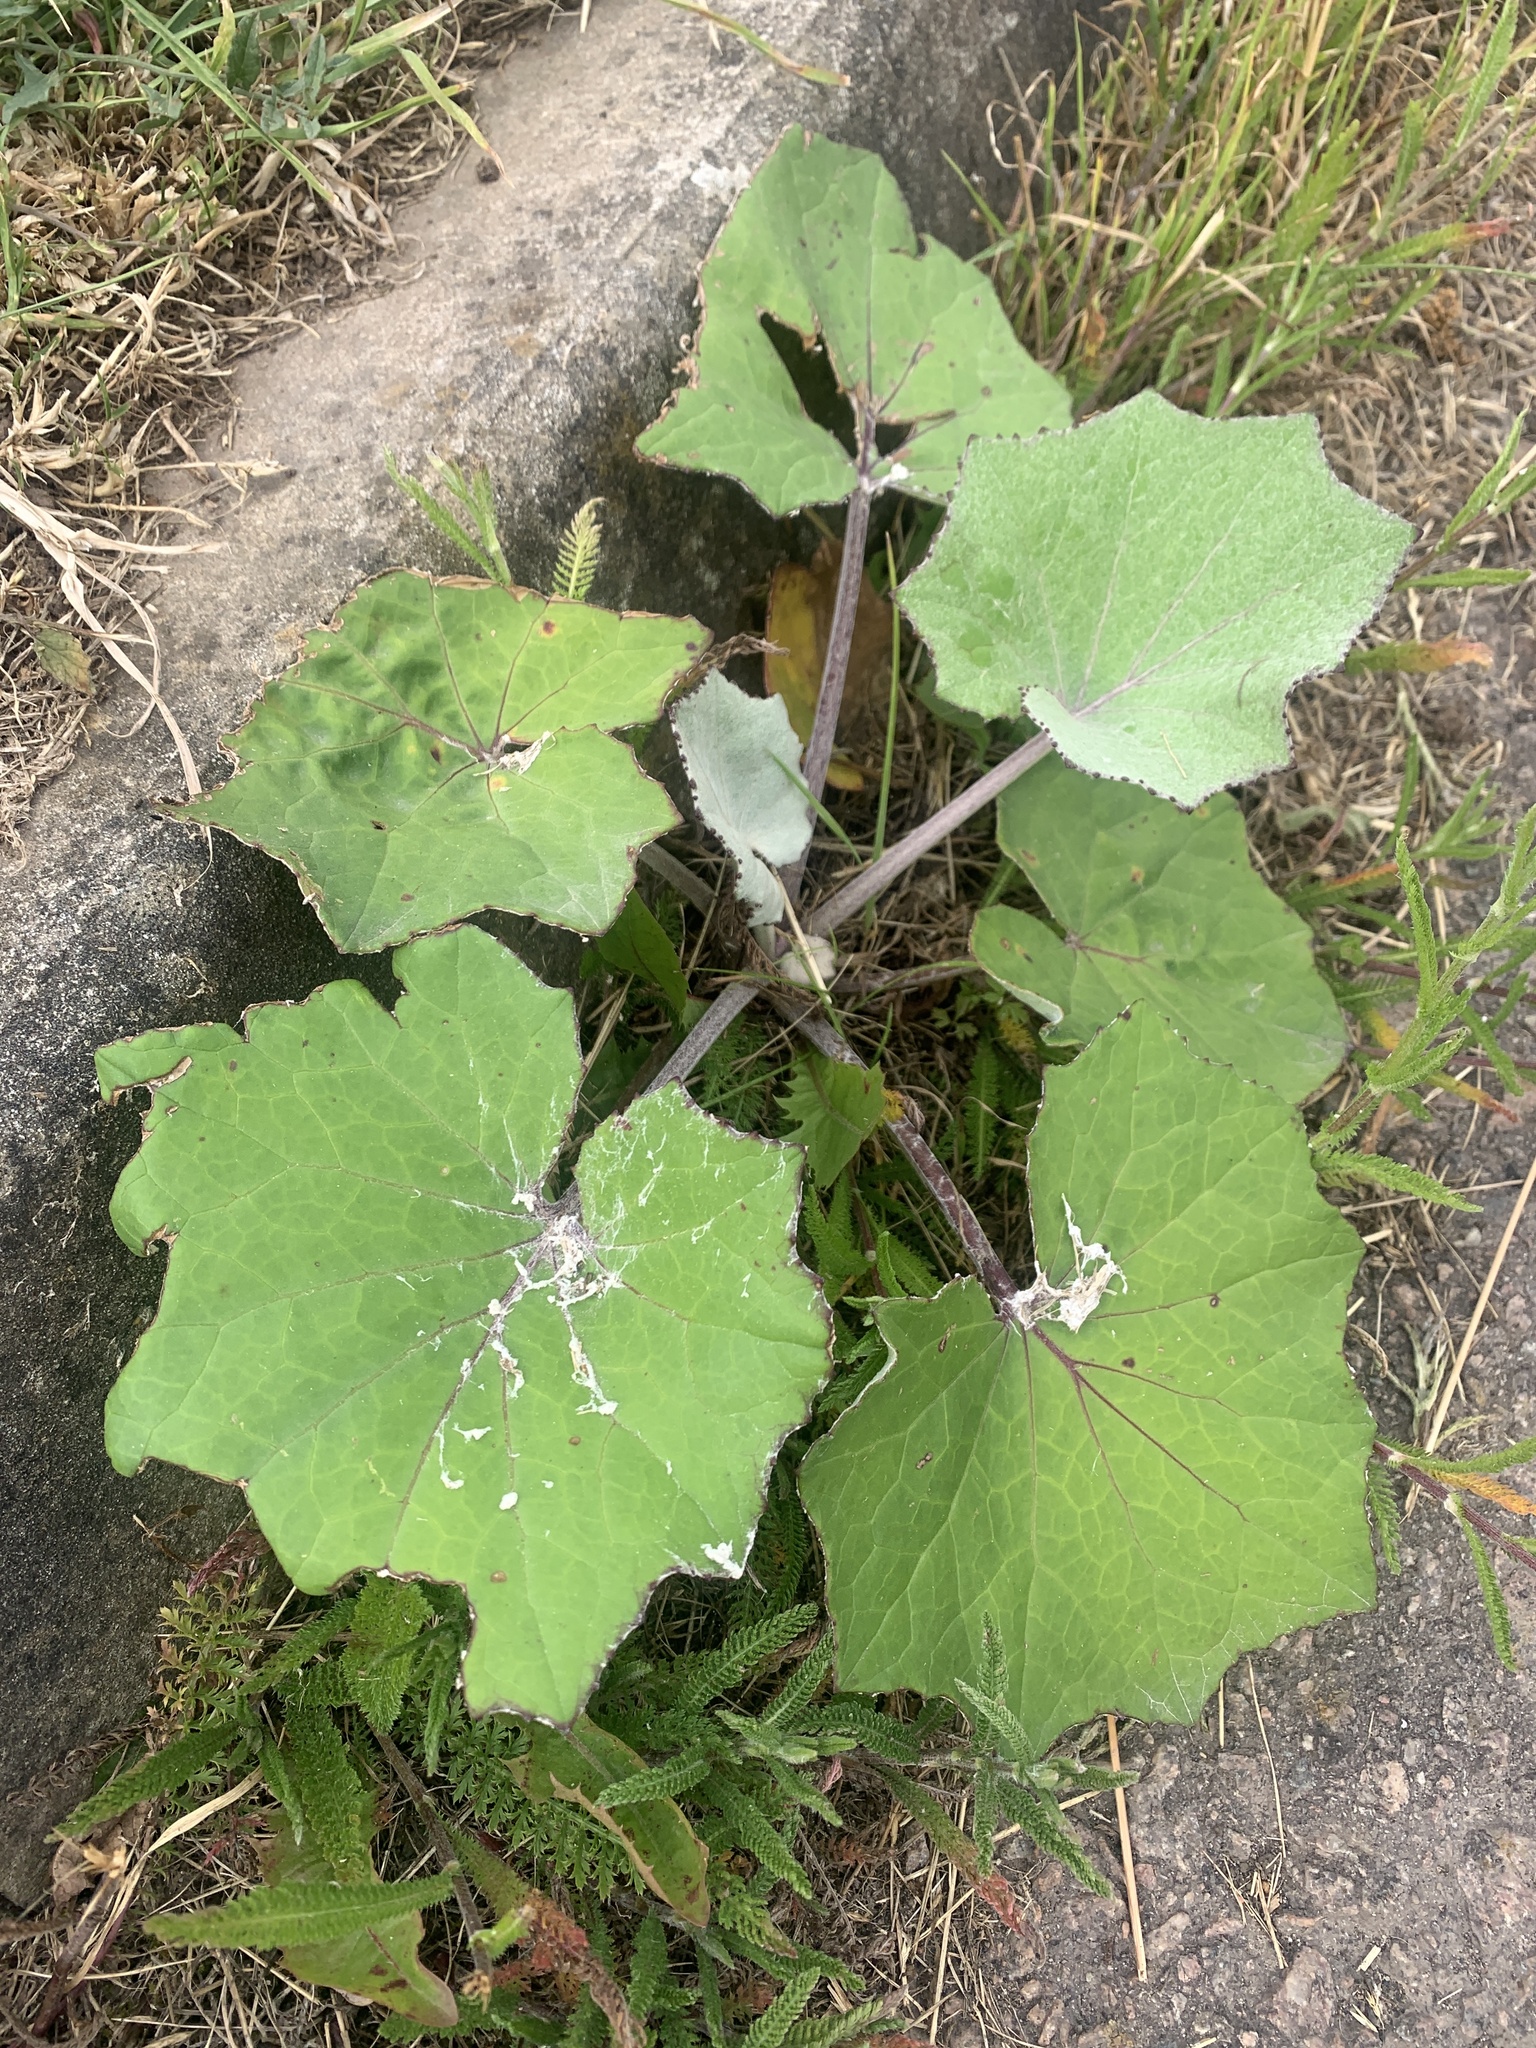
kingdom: Plantae
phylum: Tracheophyta
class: Magnoliopsida
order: Asterales
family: Asteraceae
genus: Tussilago
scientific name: Tussilago farfara
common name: Coltsfoot
